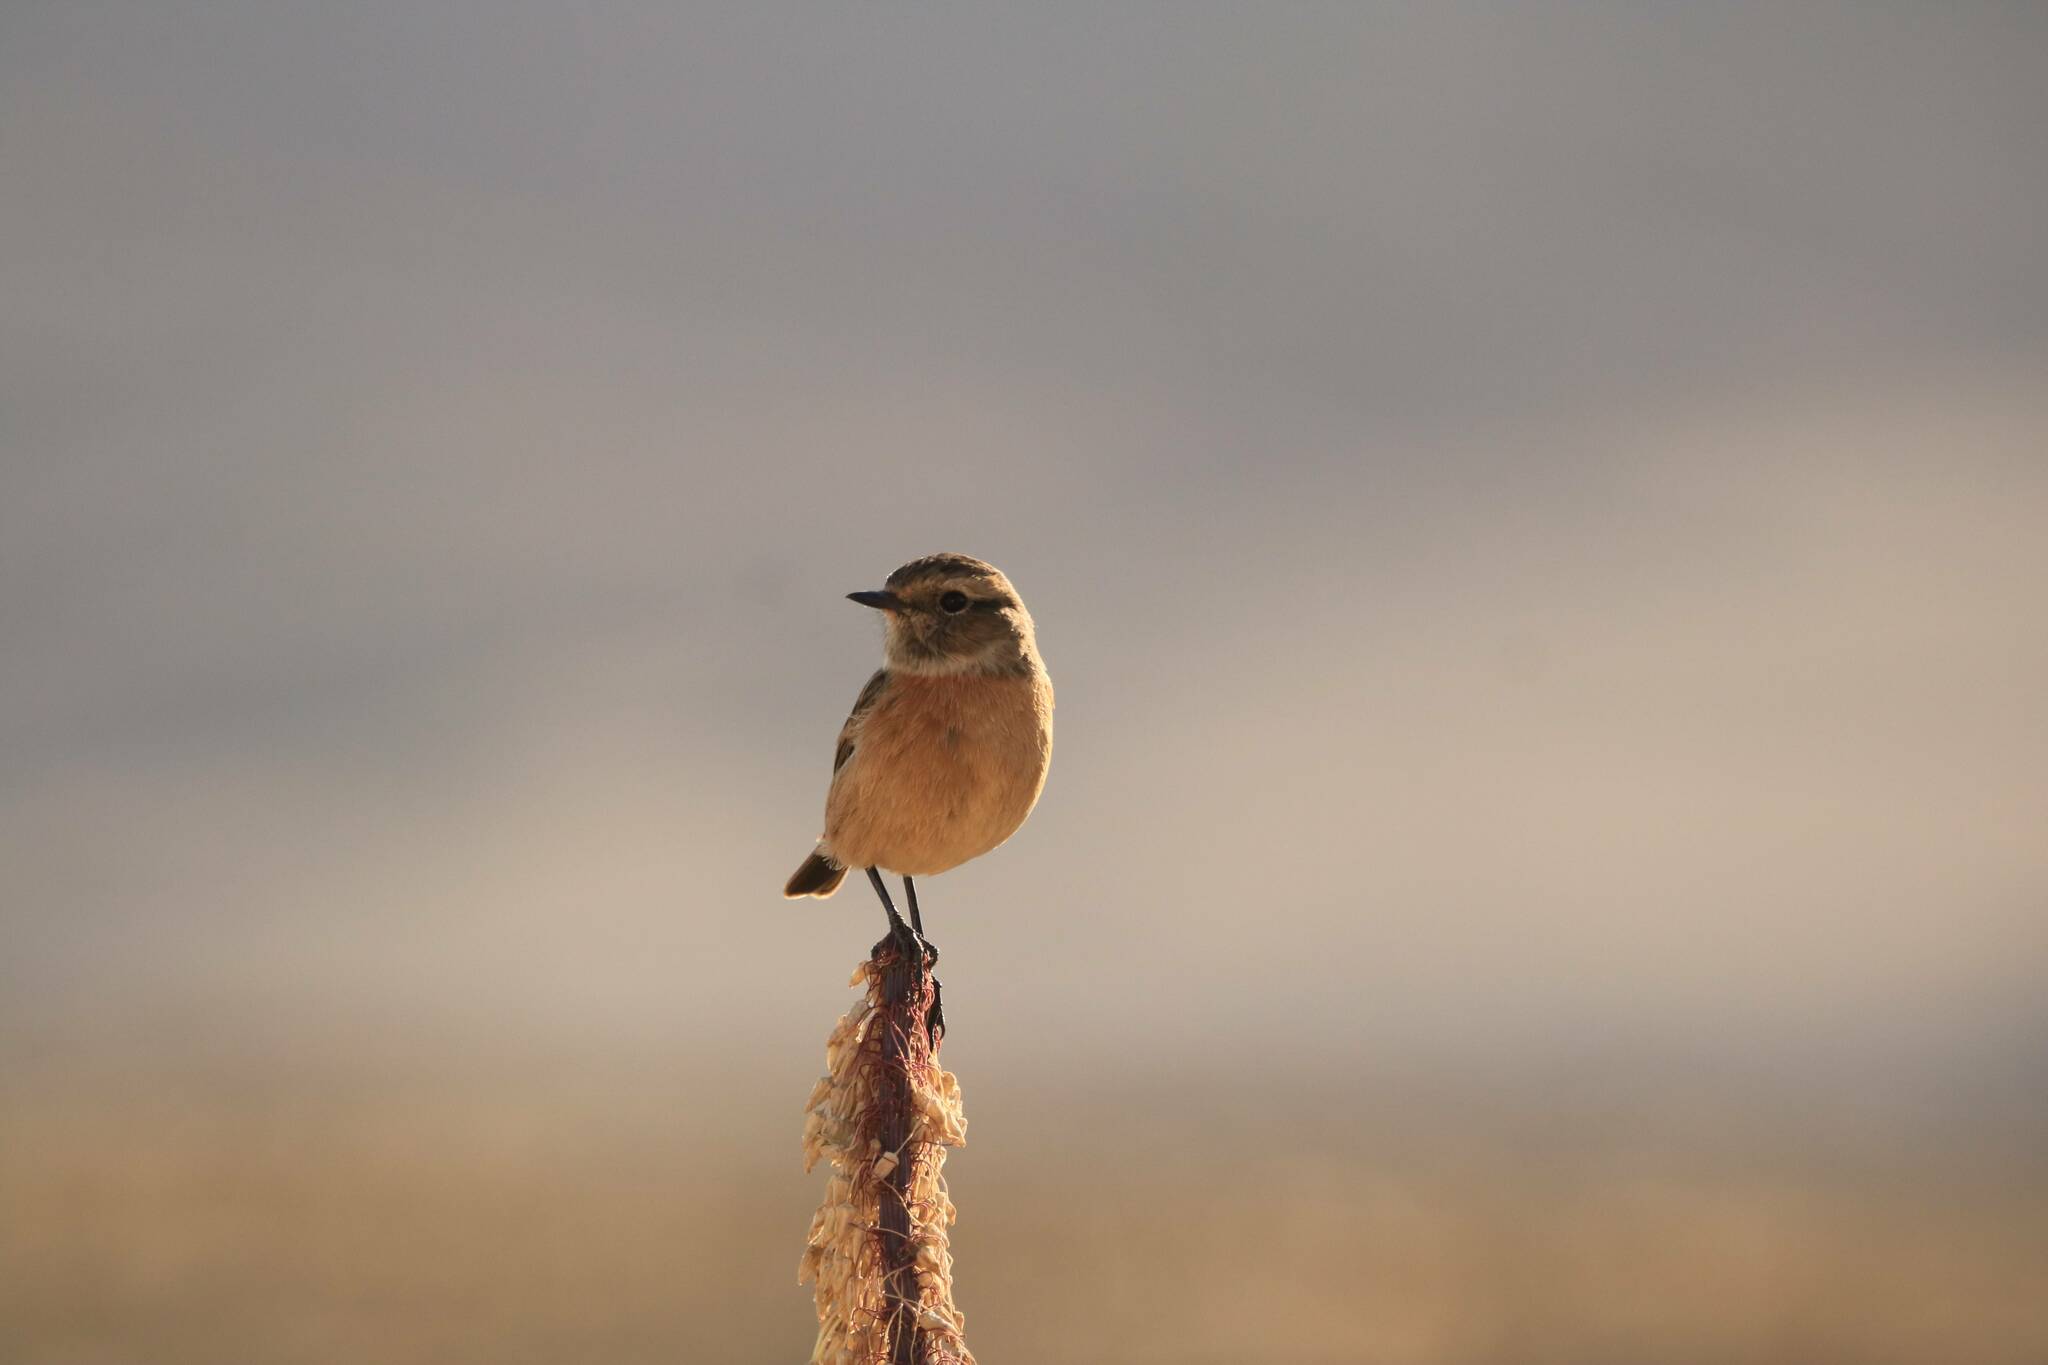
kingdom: Animalia
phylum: Chordata
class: Aves
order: Passeriformes
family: Muscicapidae
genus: Saxicola
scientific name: Saxicola rubicola
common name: European stonechat
